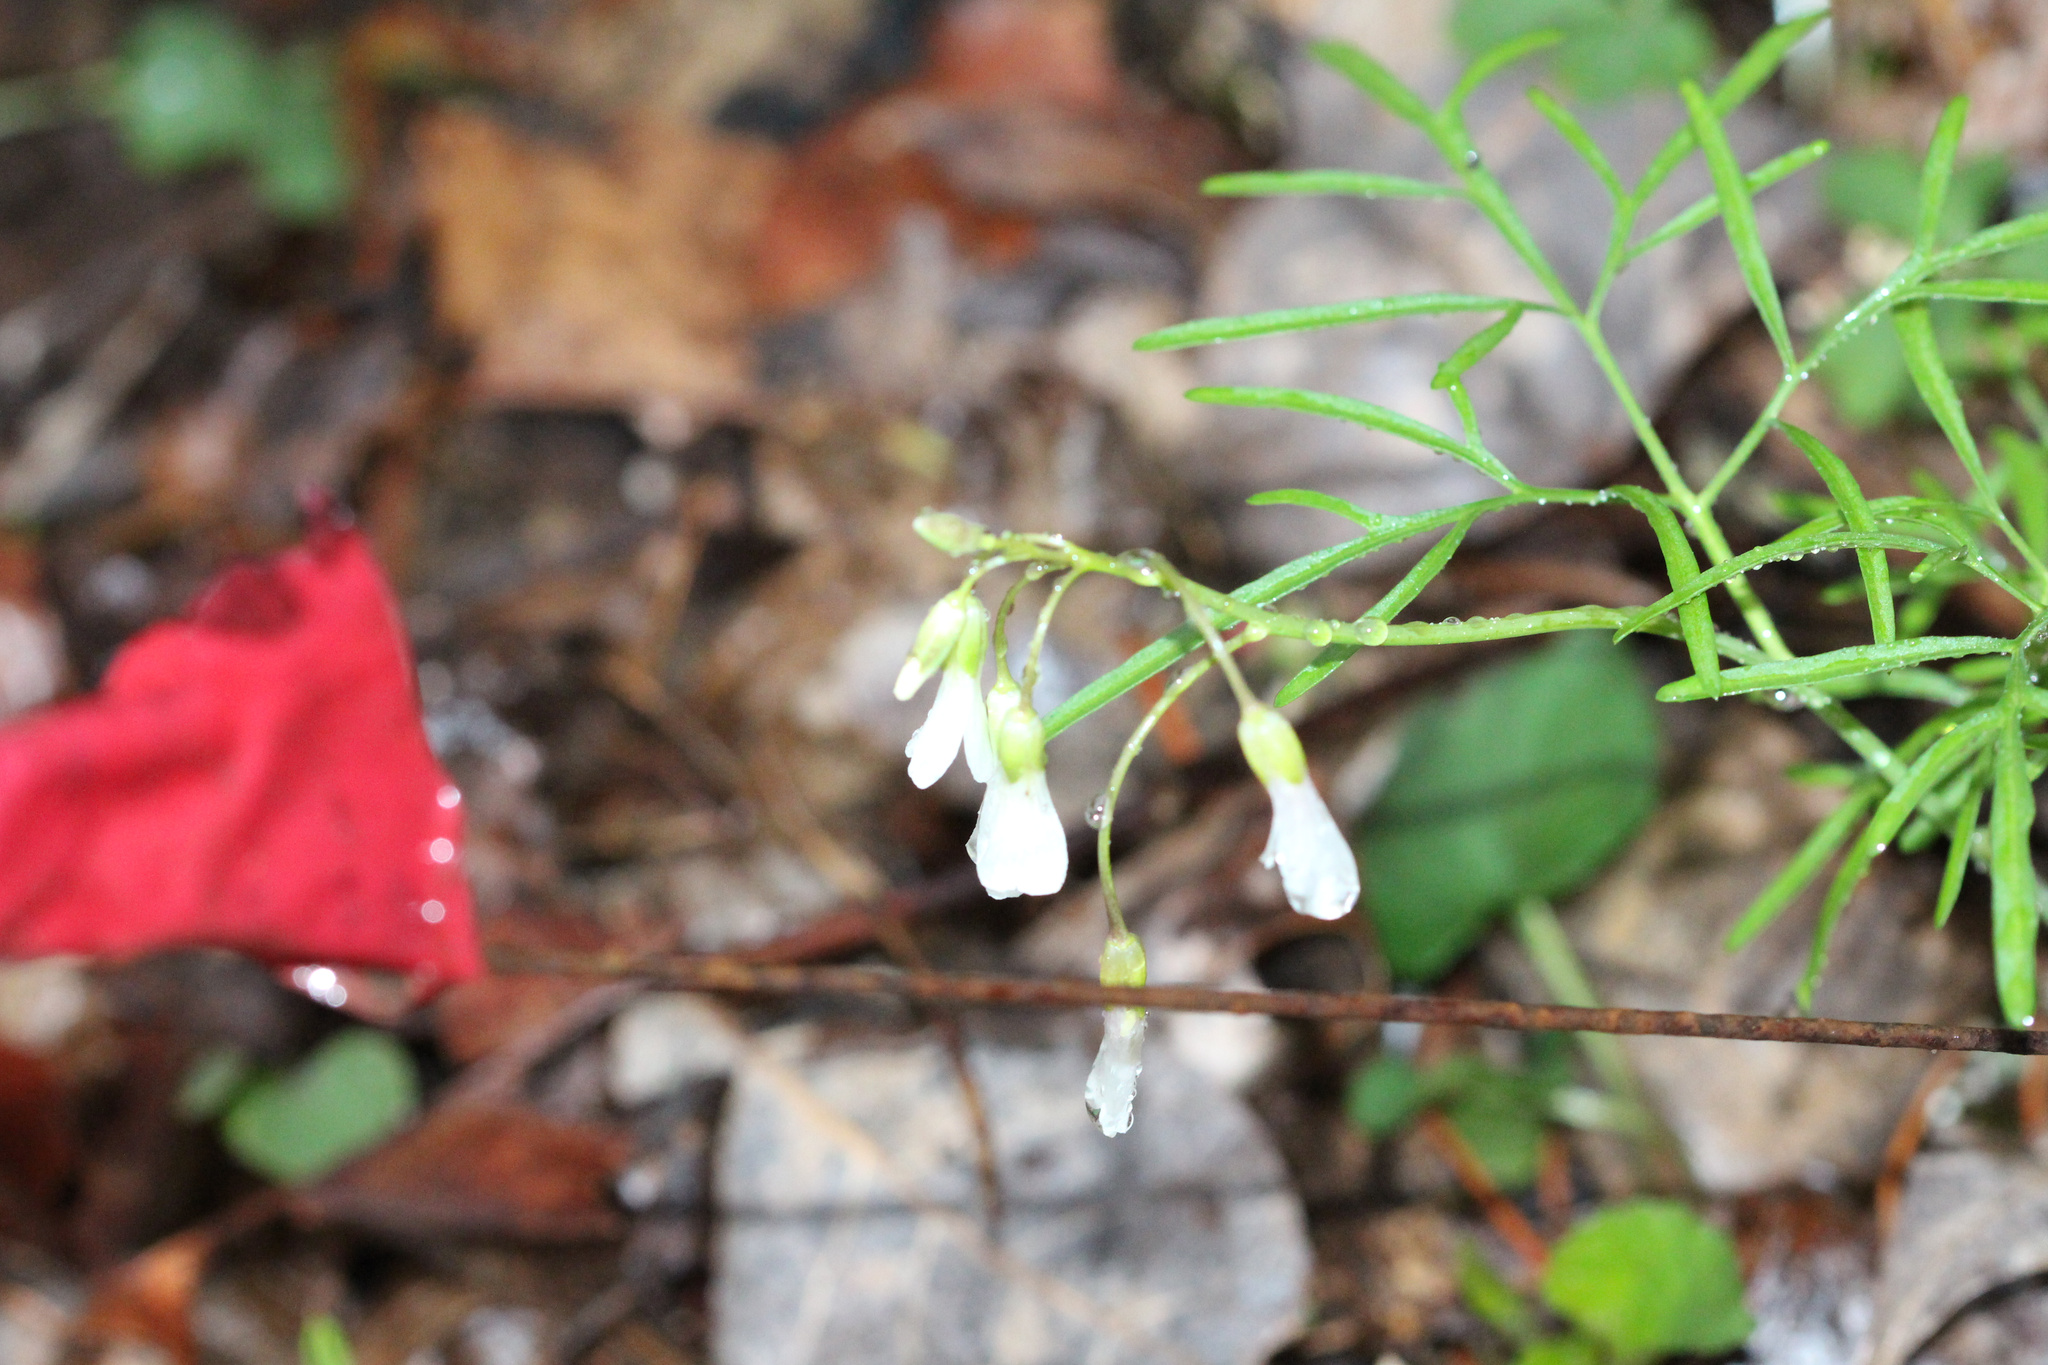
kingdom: Plantae
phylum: Tracheophyta
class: Magnoliopsida
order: Brassicales
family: Brassicaceae
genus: Cardamine
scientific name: Cardamine dissecta
